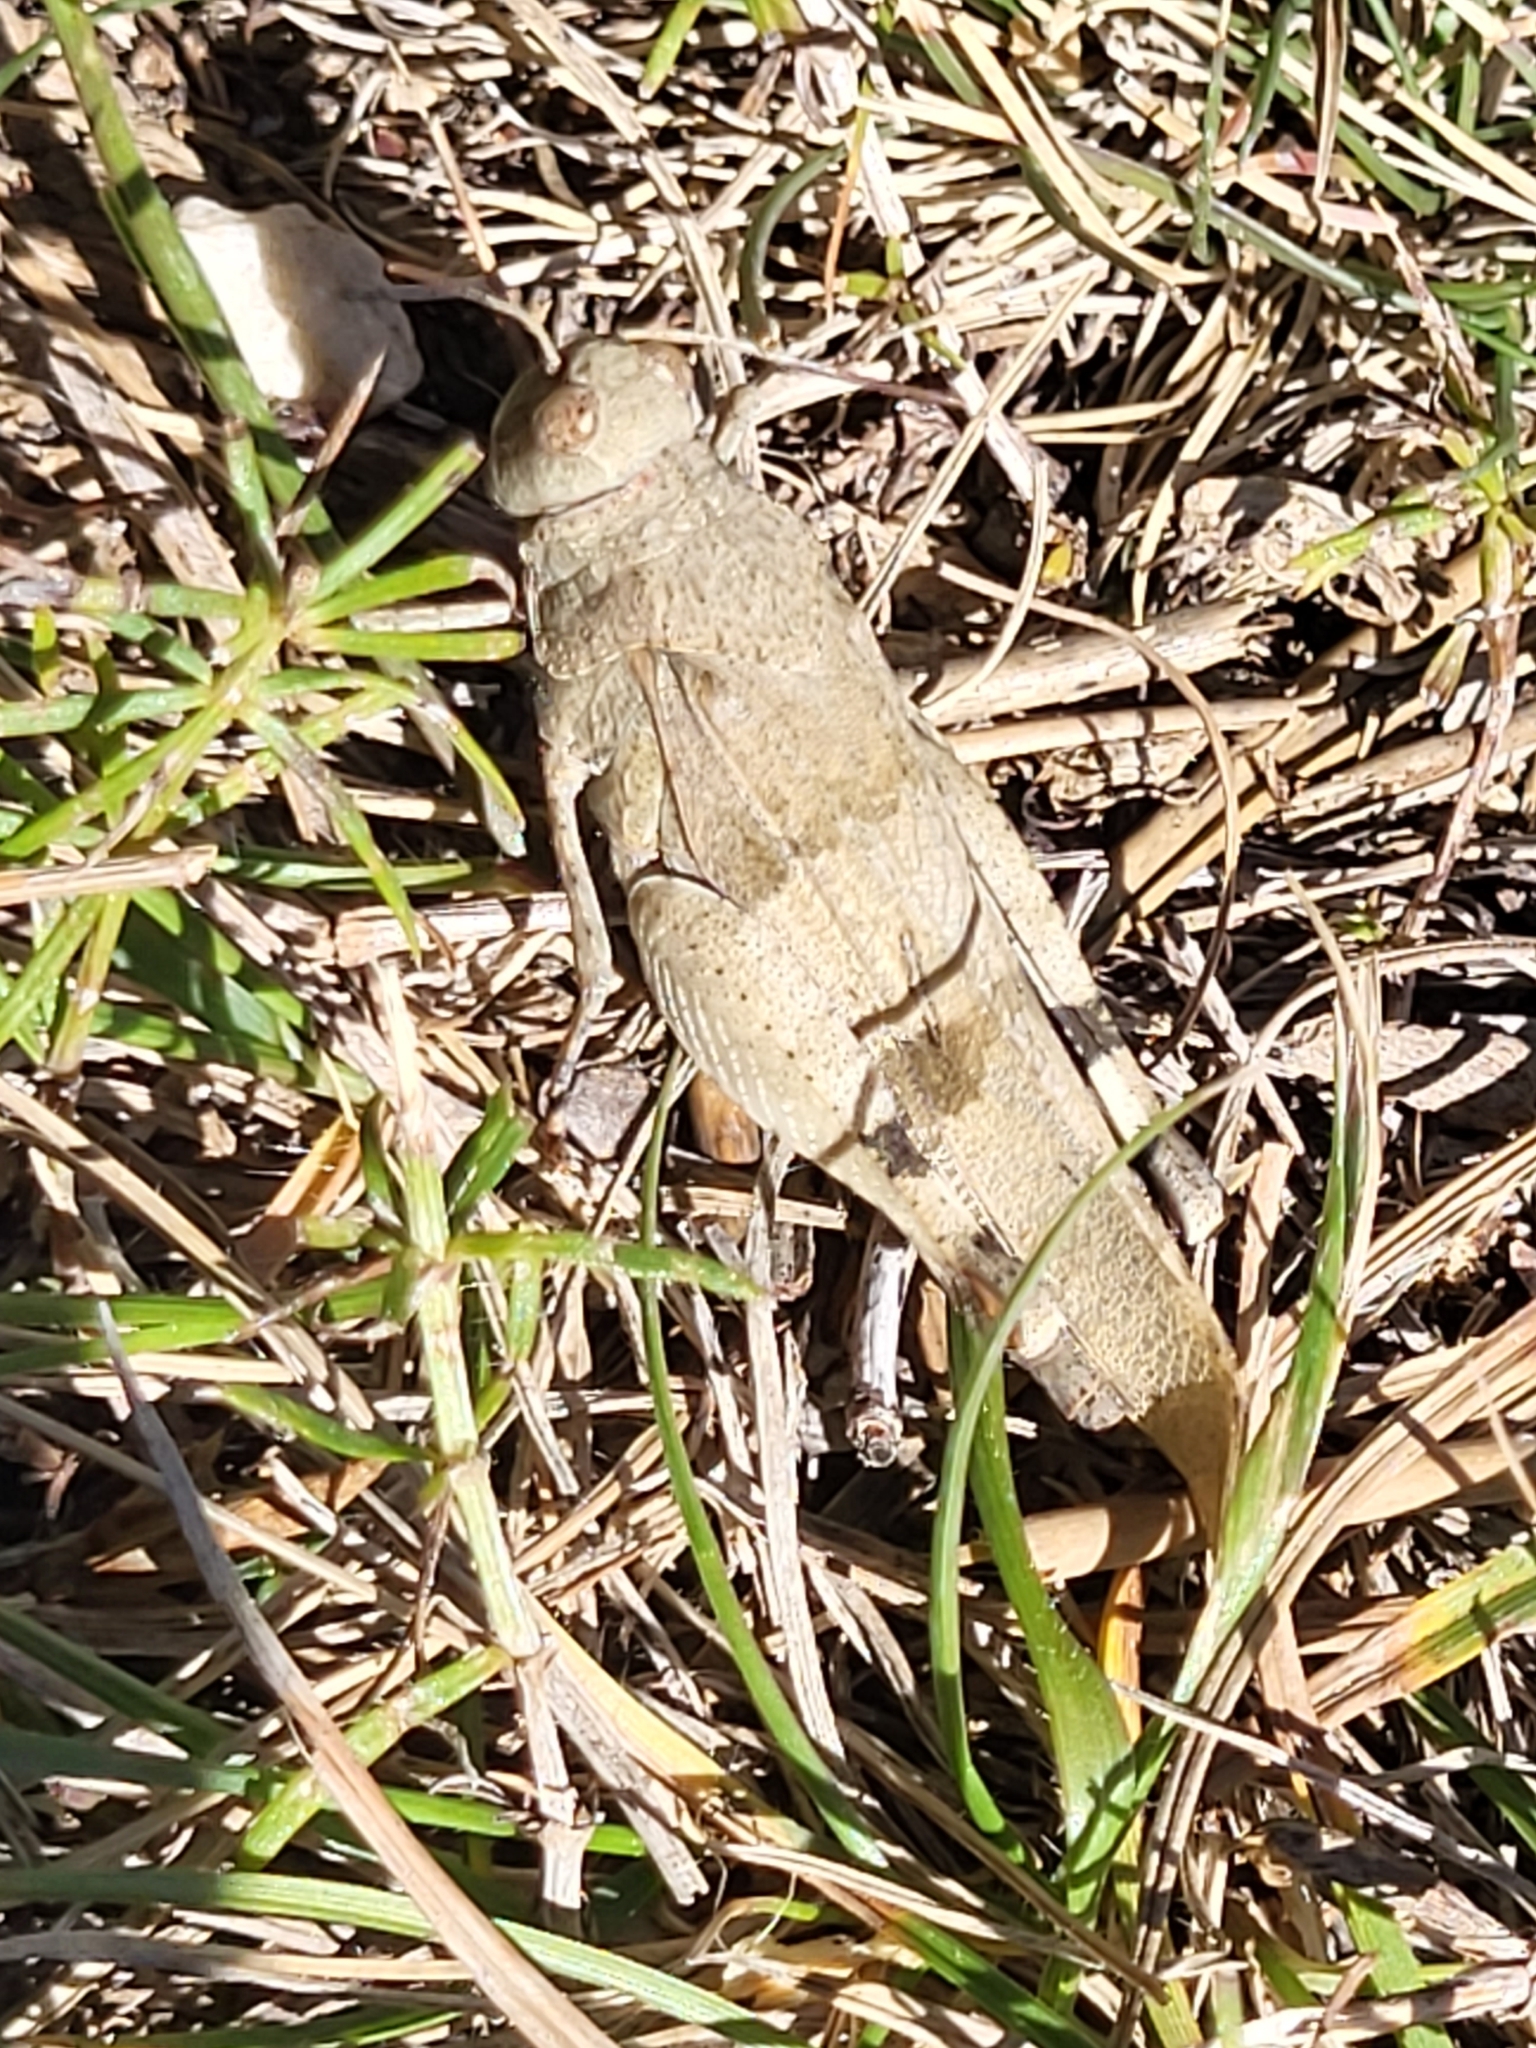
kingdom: Animalia
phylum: Arthropoda
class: Insecta
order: Orthoptera
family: Acrididae
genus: Oedipoda
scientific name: Oedipoda caerulescens
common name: Blue-winged grasshopper
